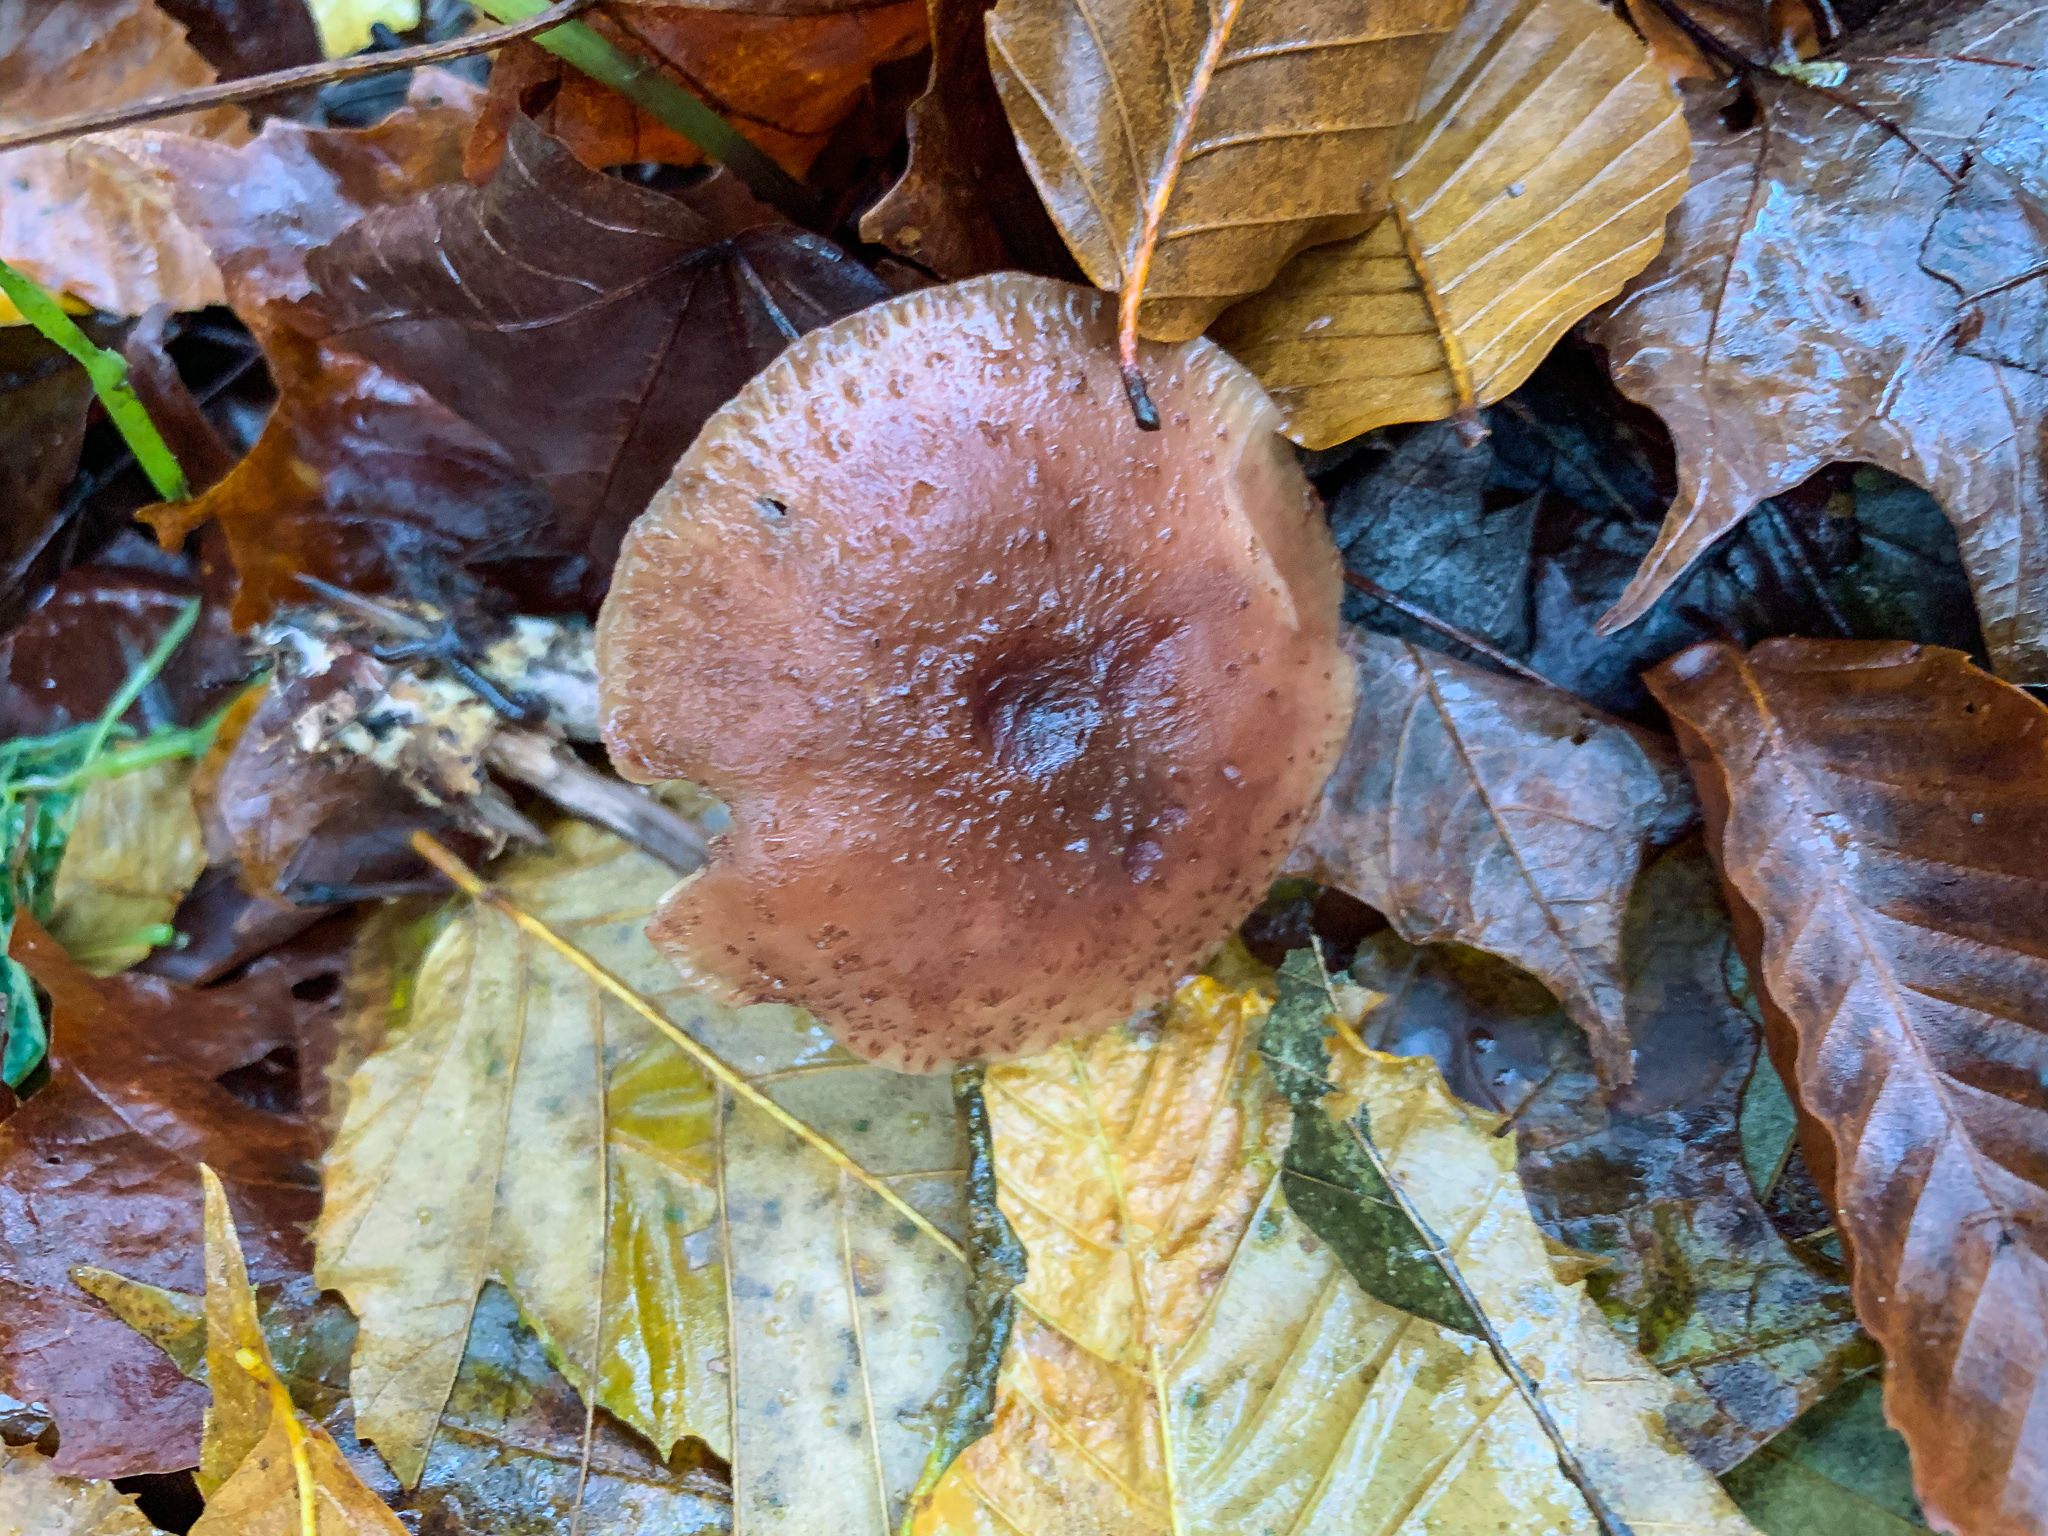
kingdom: Fungi
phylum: Basidiomycota
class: Agaricomycetes
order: Agaricales
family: Physalacriaceae
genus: Armillaria
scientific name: Armillaria gallica
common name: Bulbous honey fungus
